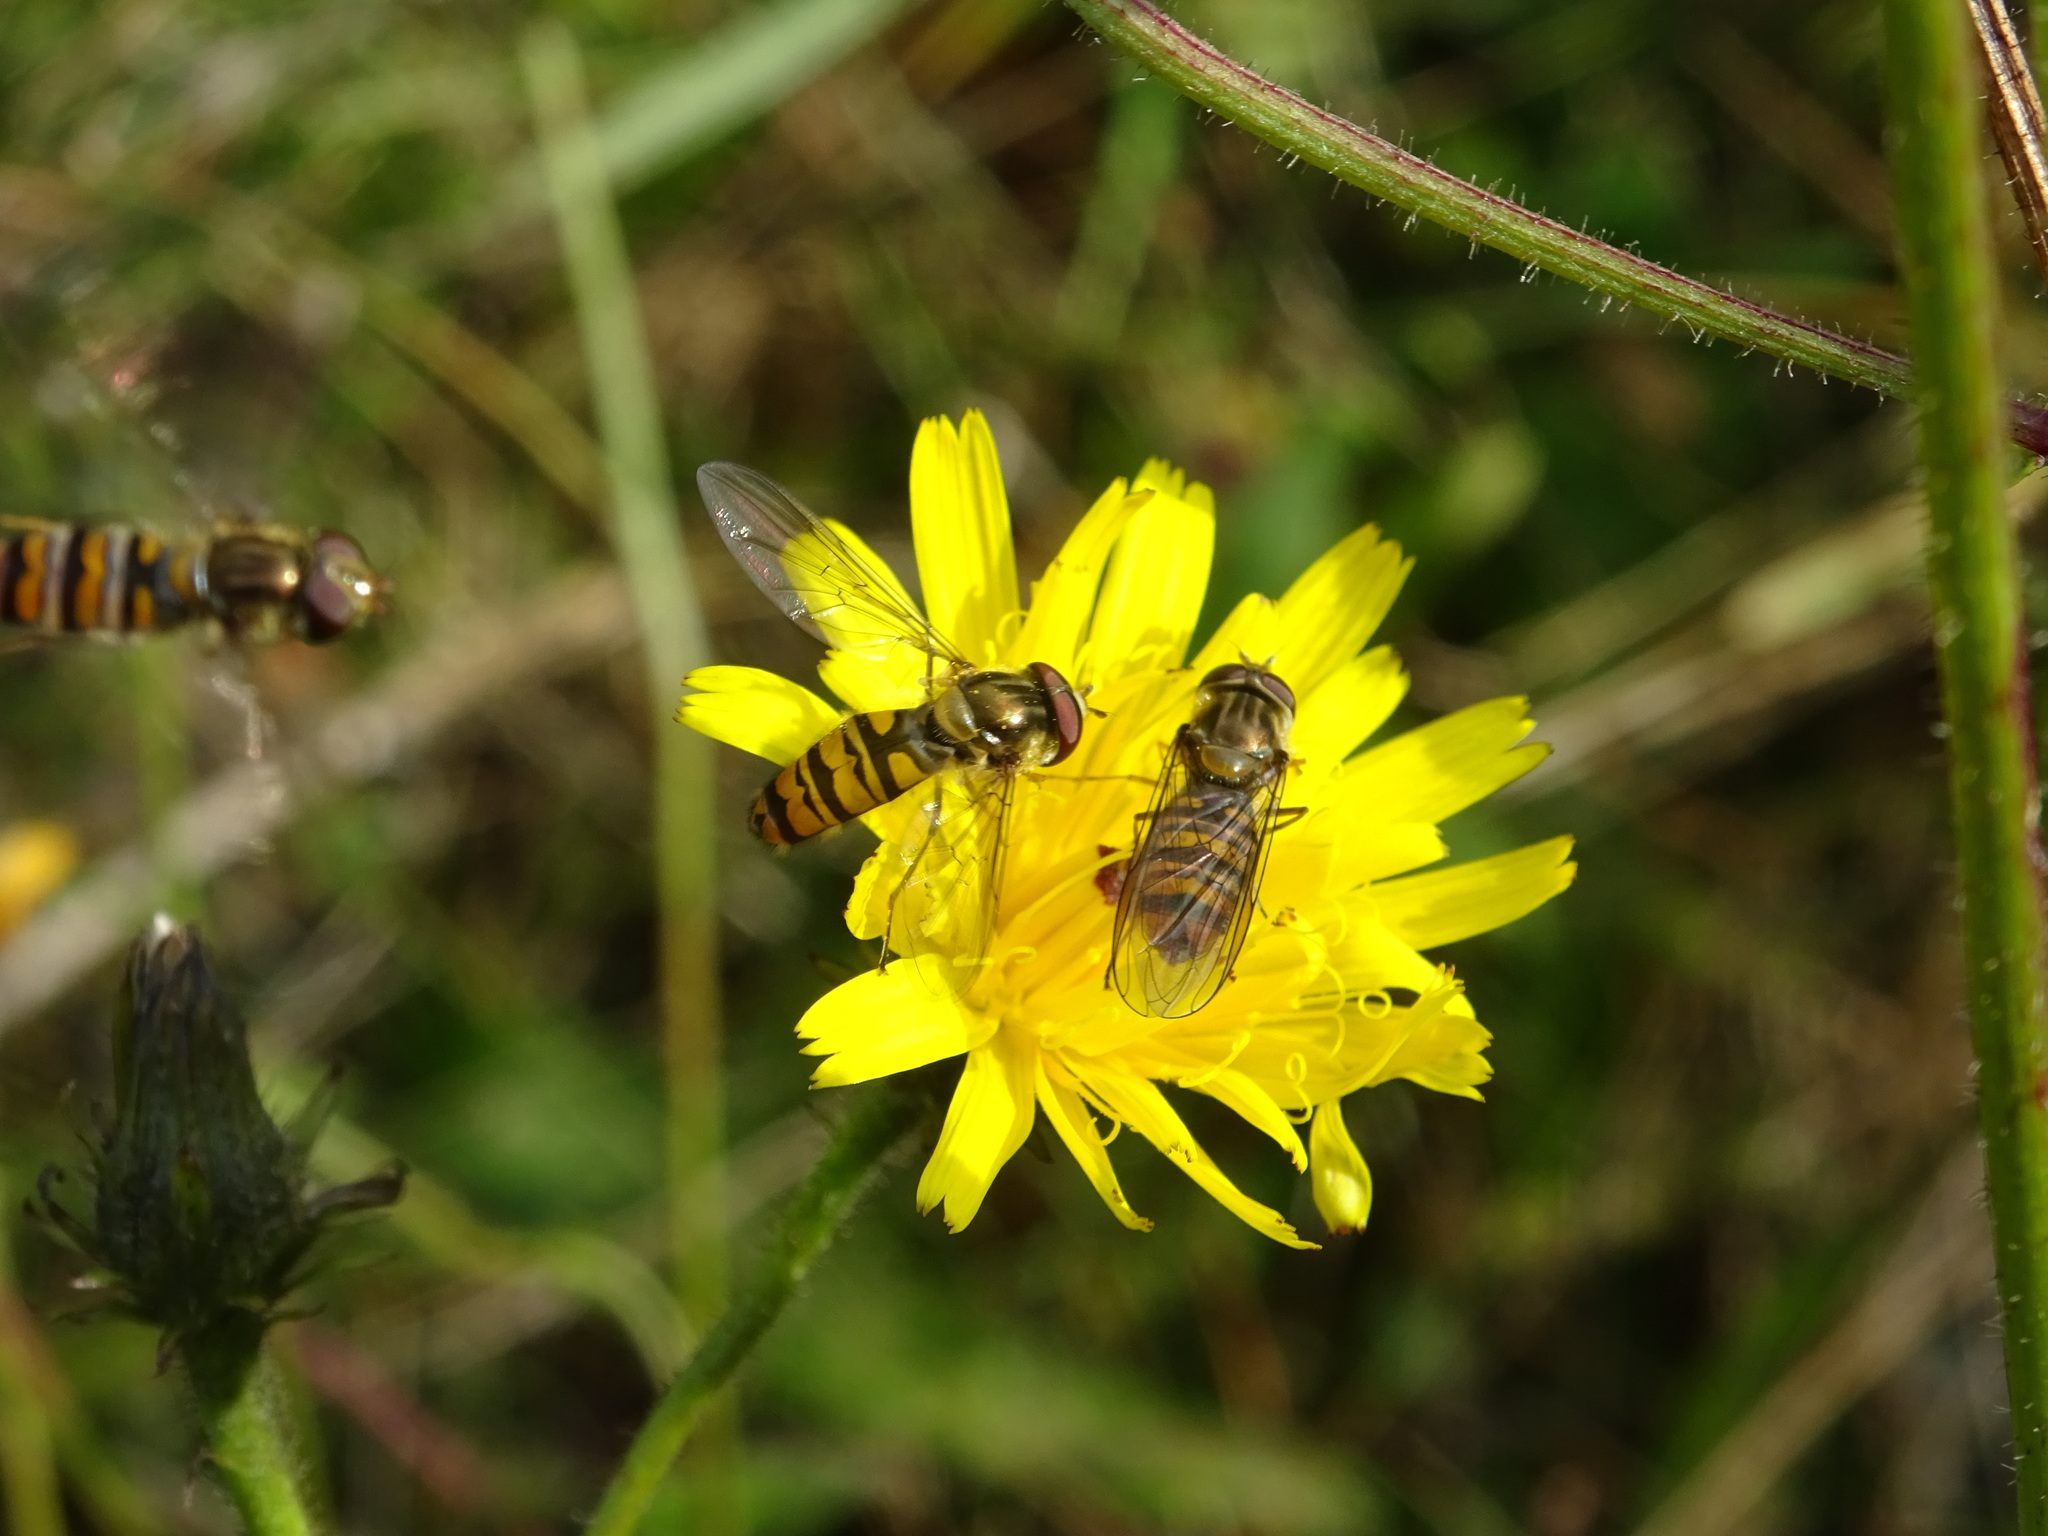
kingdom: Animalia
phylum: Arthropoda
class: Insecta
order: Diptera
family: Syrphidae
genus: Episyrphus
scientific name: Episyrphus balteatus
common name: Marmalade hoverfly
